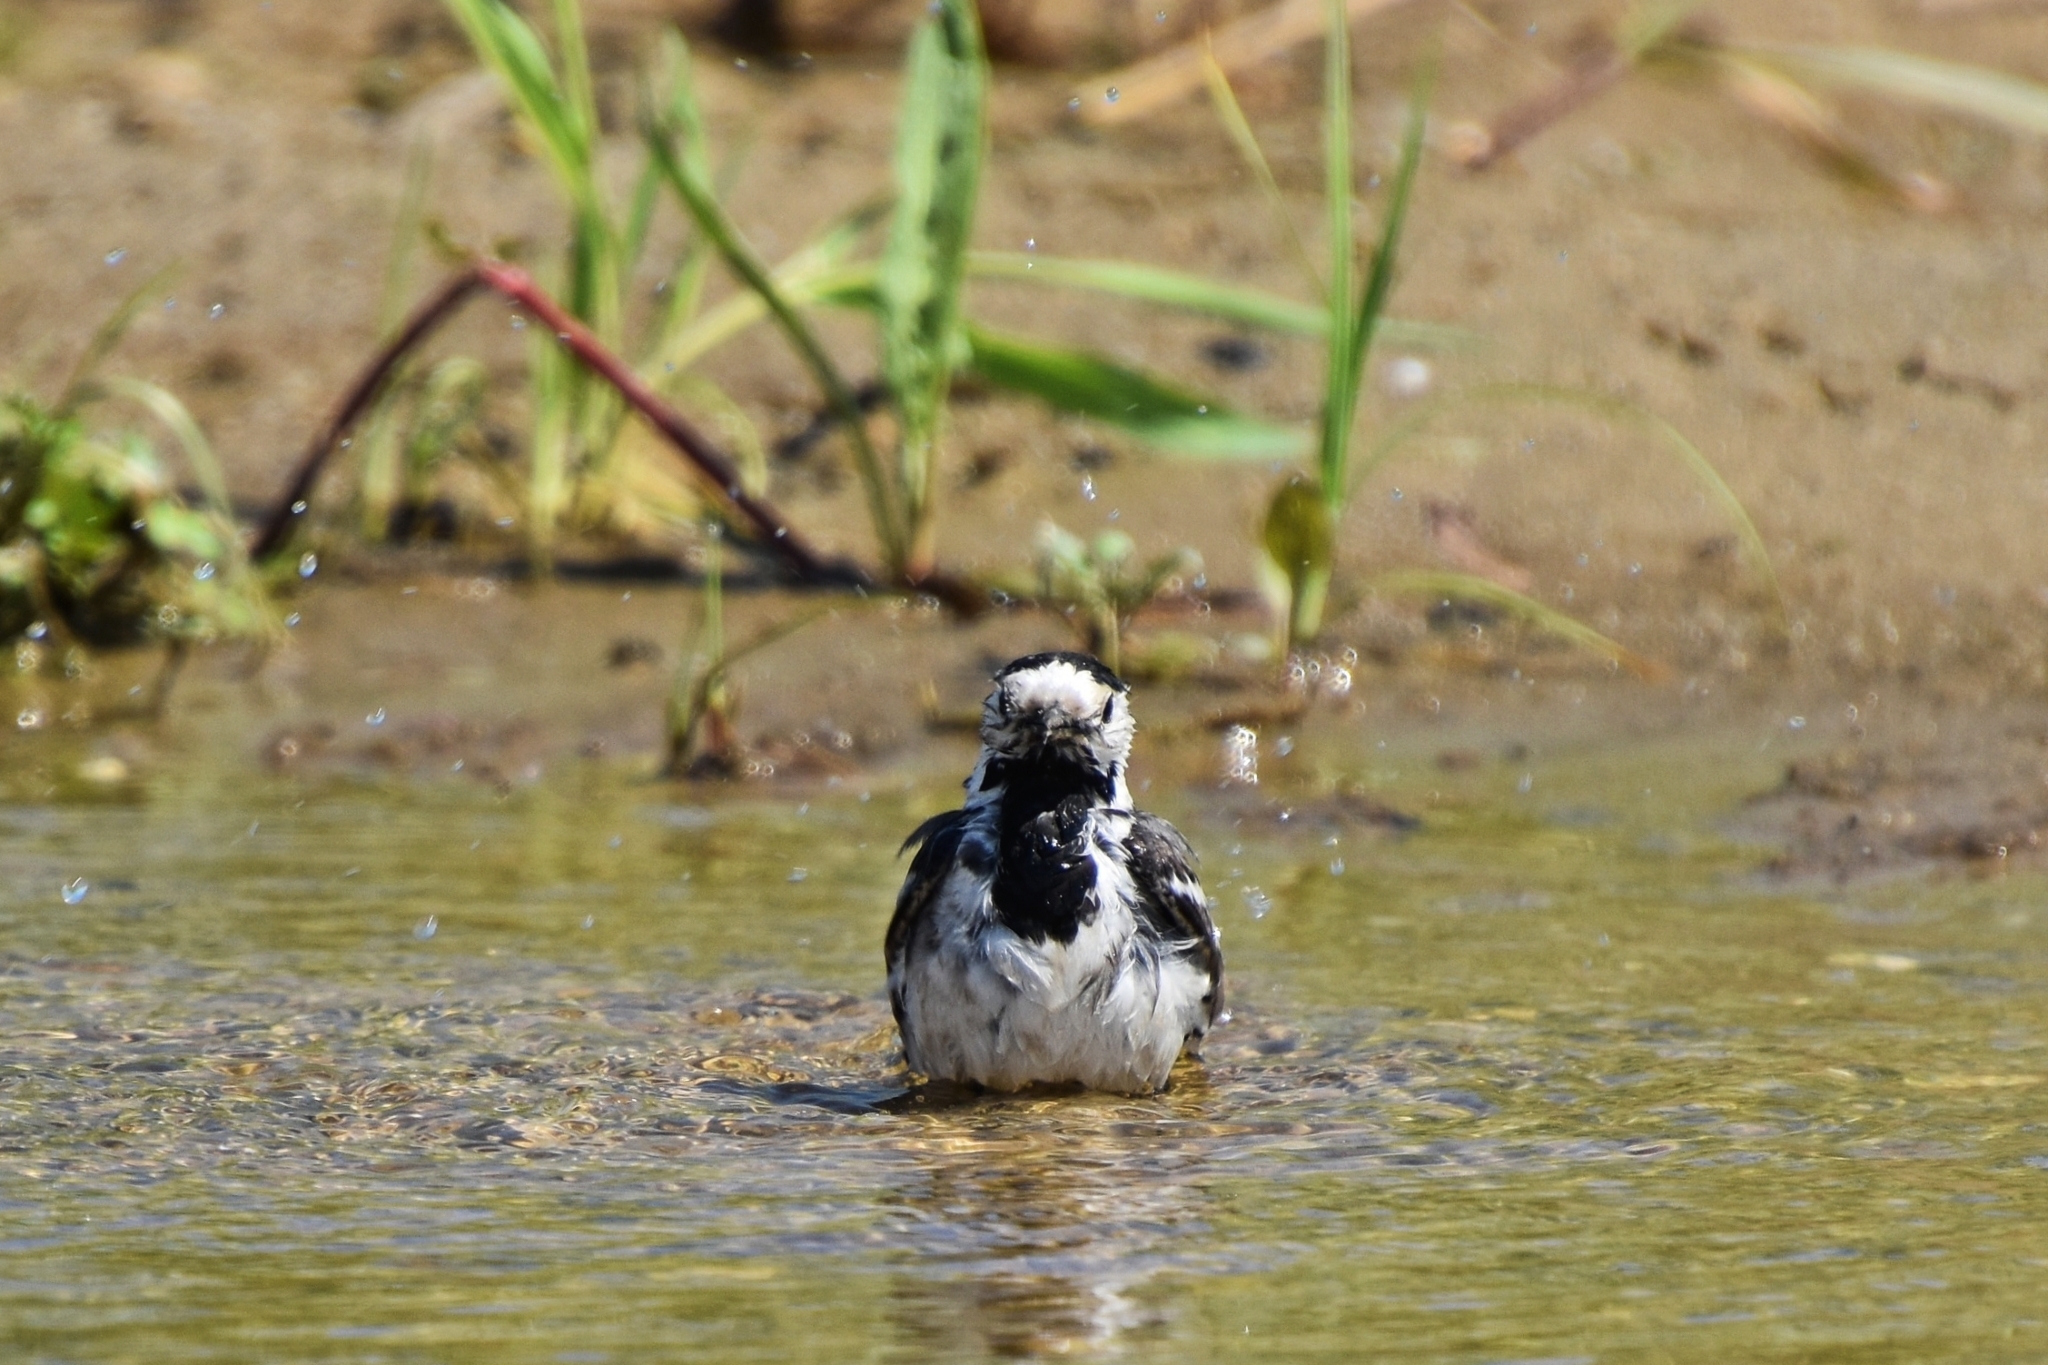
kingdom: Animalia
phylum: Chordata
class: Aves
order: Passeriformes
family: Motacillidae
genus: Motacilla
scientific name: Motacilla alba
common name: White wagtail
